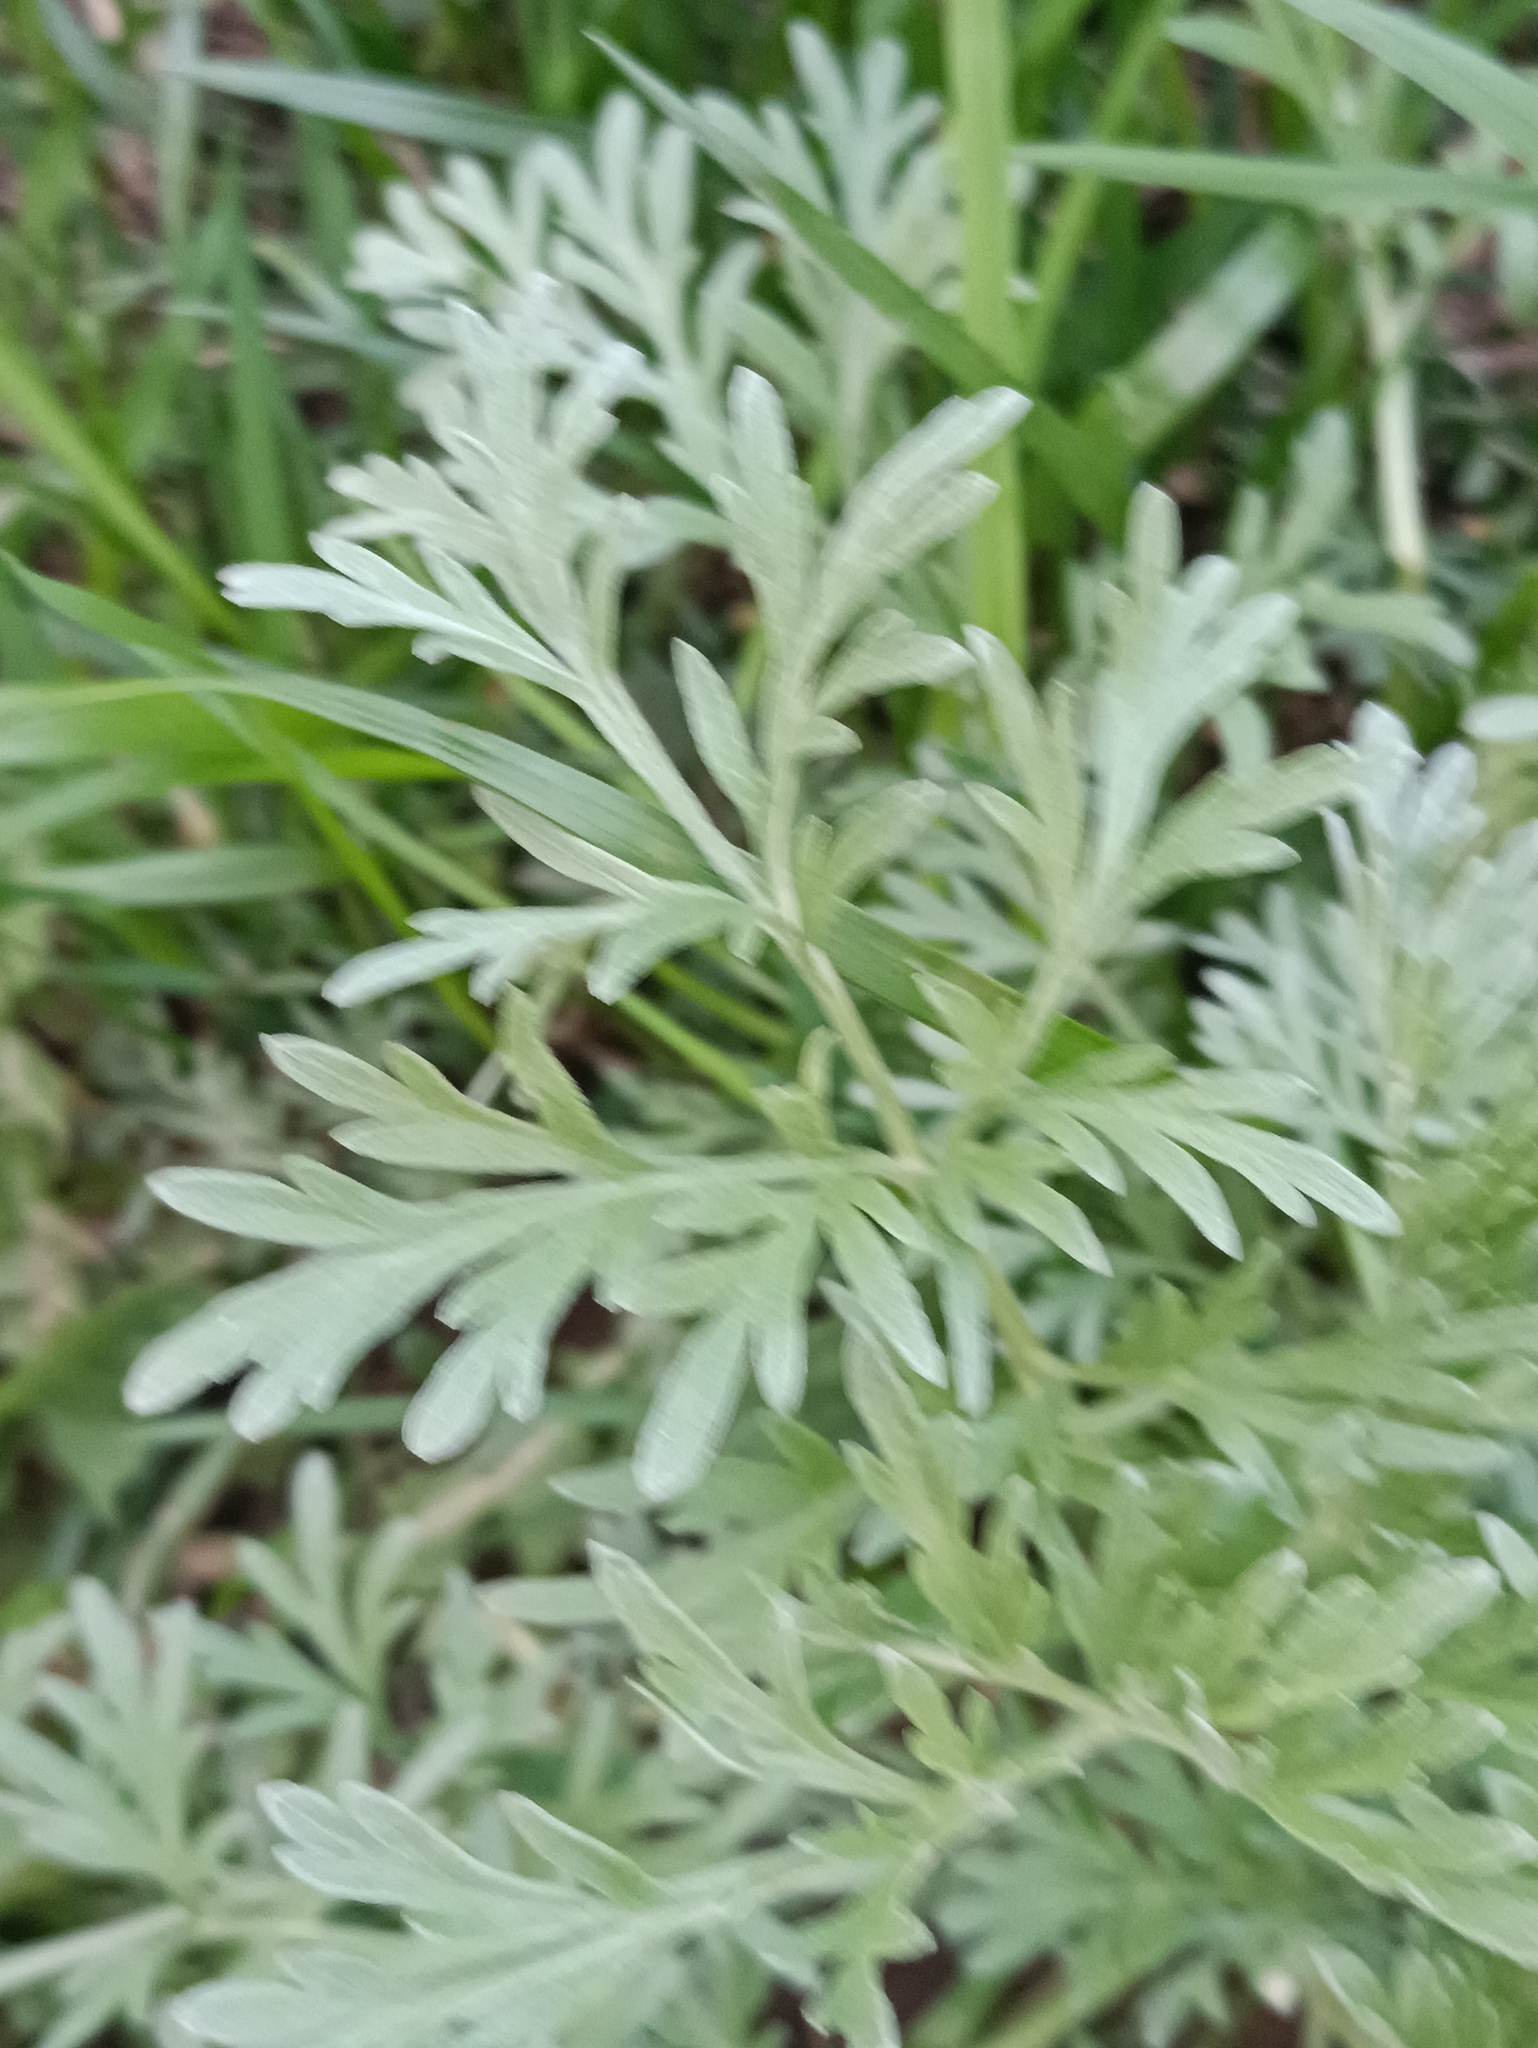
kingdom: Plantae
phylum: Tracheophyta
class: Magnoliopsida
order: Asterales
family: Asteraceae
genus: Artemisia
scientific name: Artemisia absinthium
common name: Wormwood
